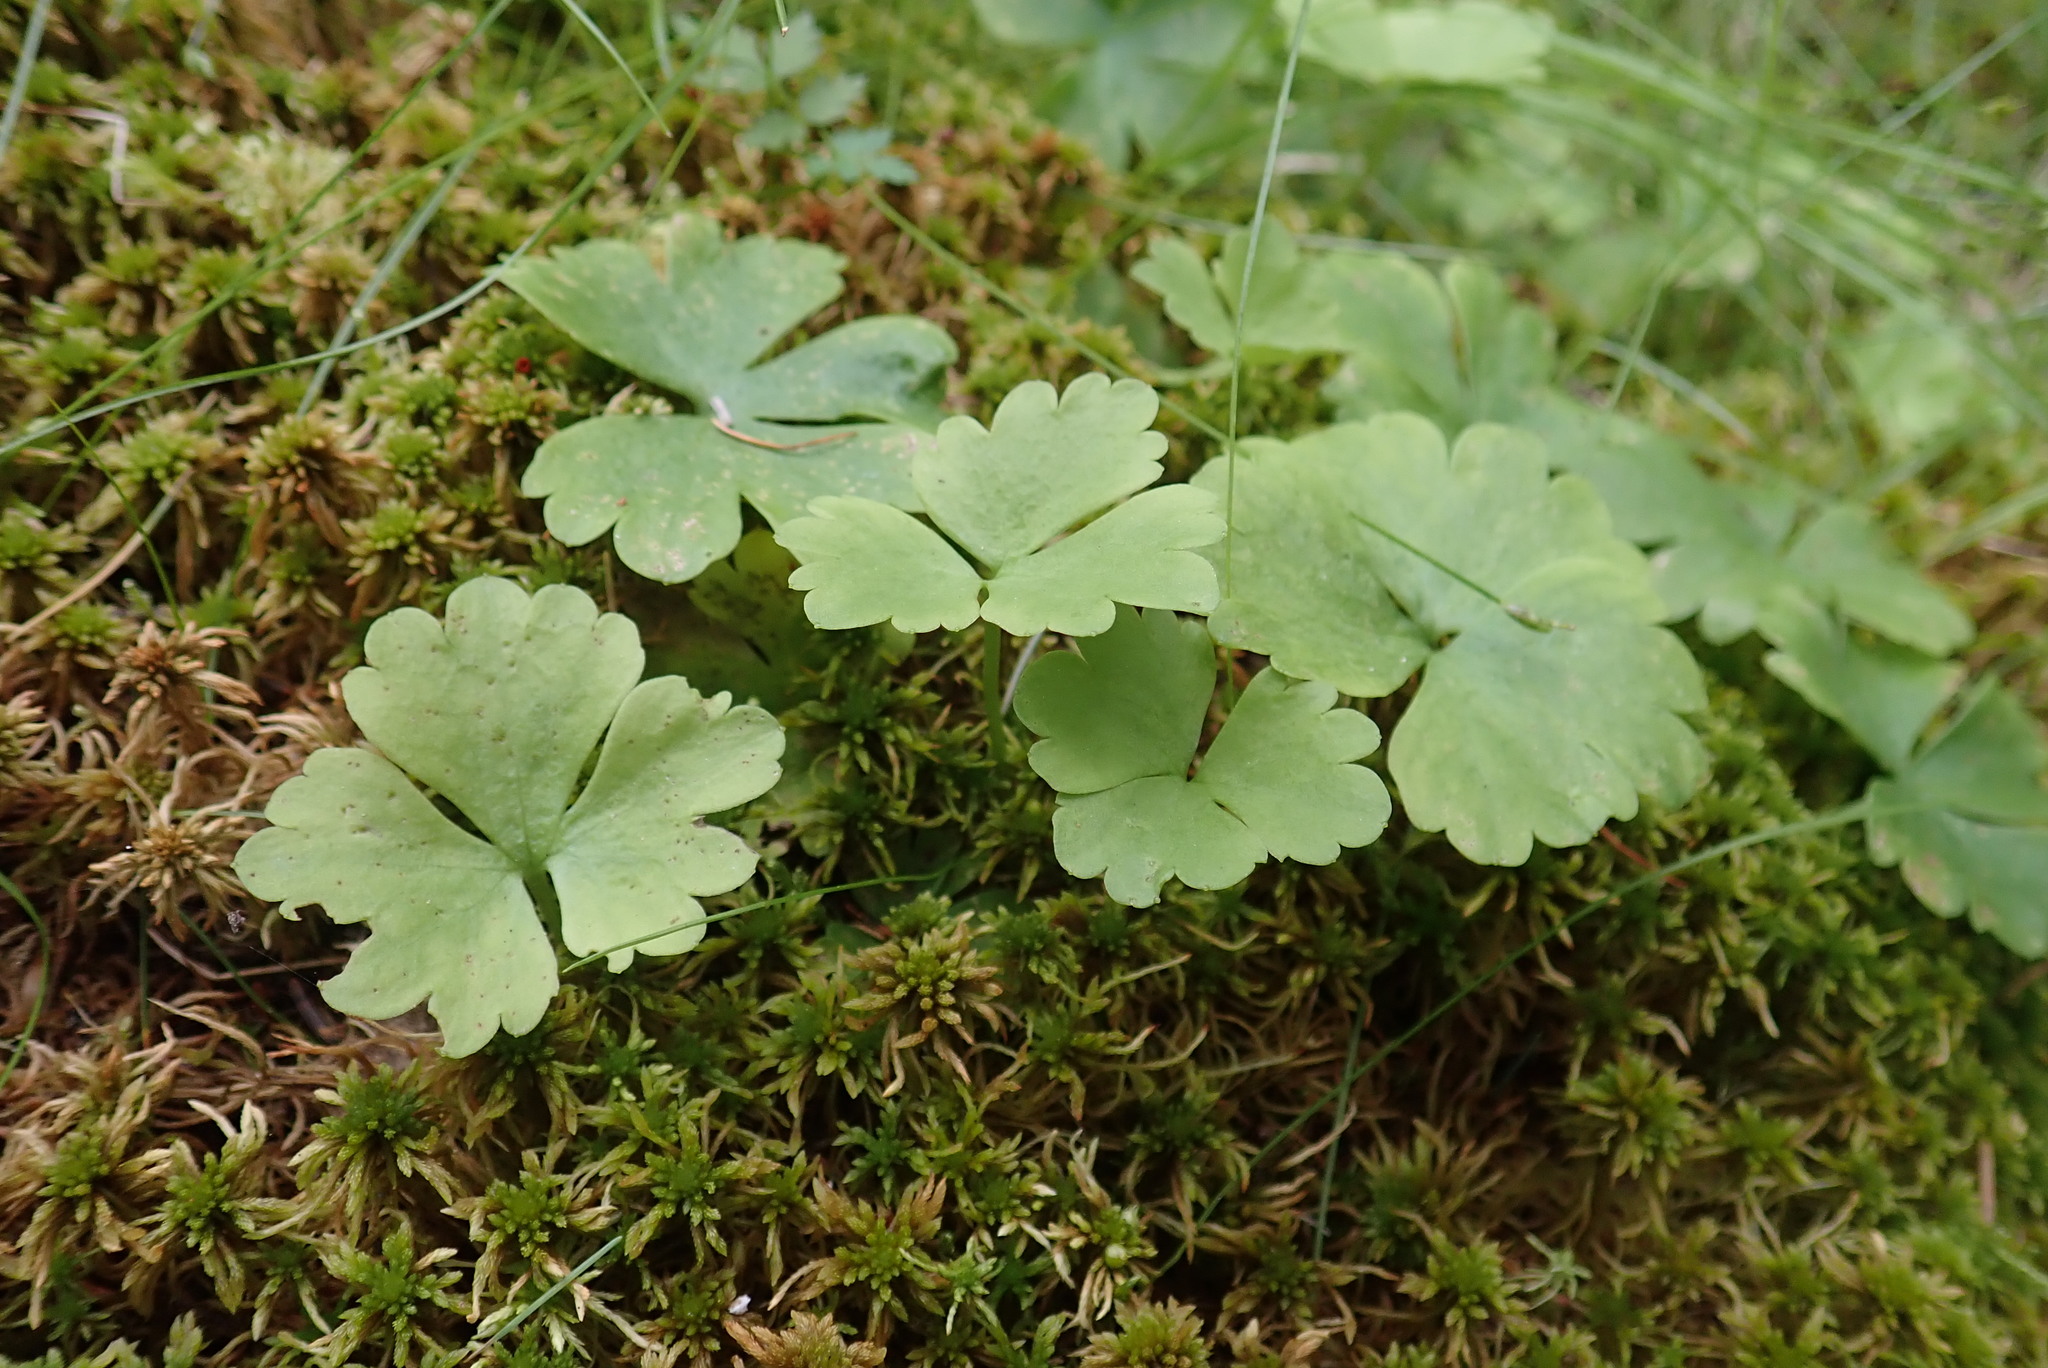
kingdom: Plantae
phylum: Tracheophyta
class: Magnoliopsida
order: Ranunculales
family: Ranunculaceae
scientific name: Ranunculaceae
